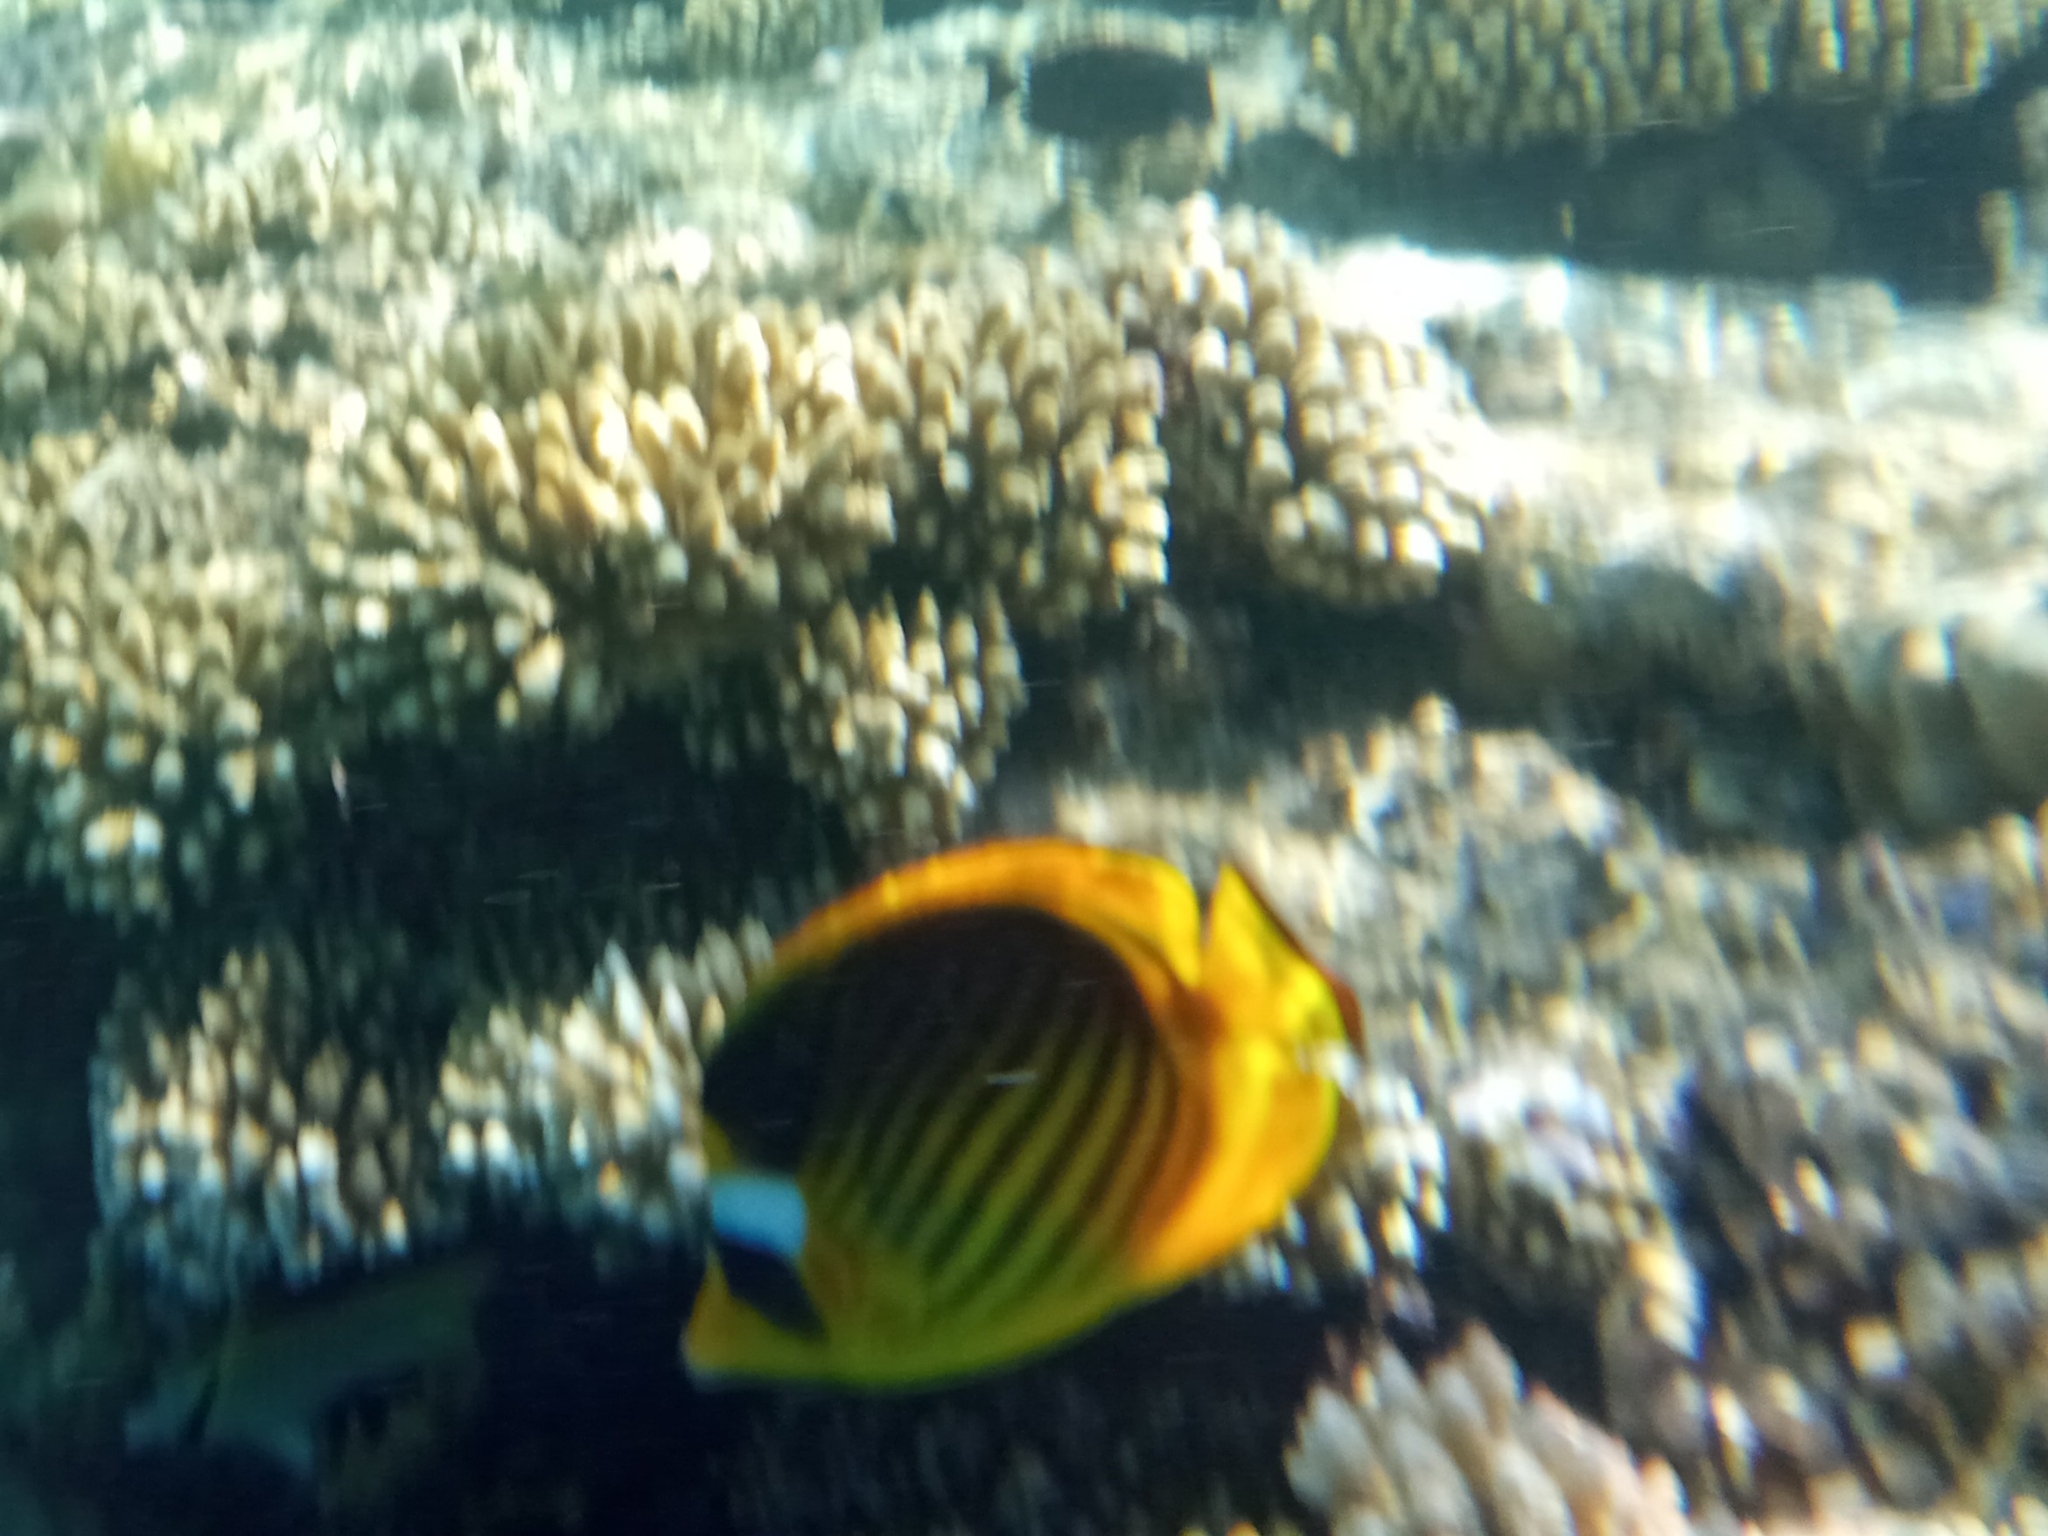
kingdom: Animalia
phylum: Chordata
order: Perciformes
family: Chaetodontidae
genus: Chaetodon
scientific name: Chaetodon fasciatus
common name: Diagonal butterflyfish
